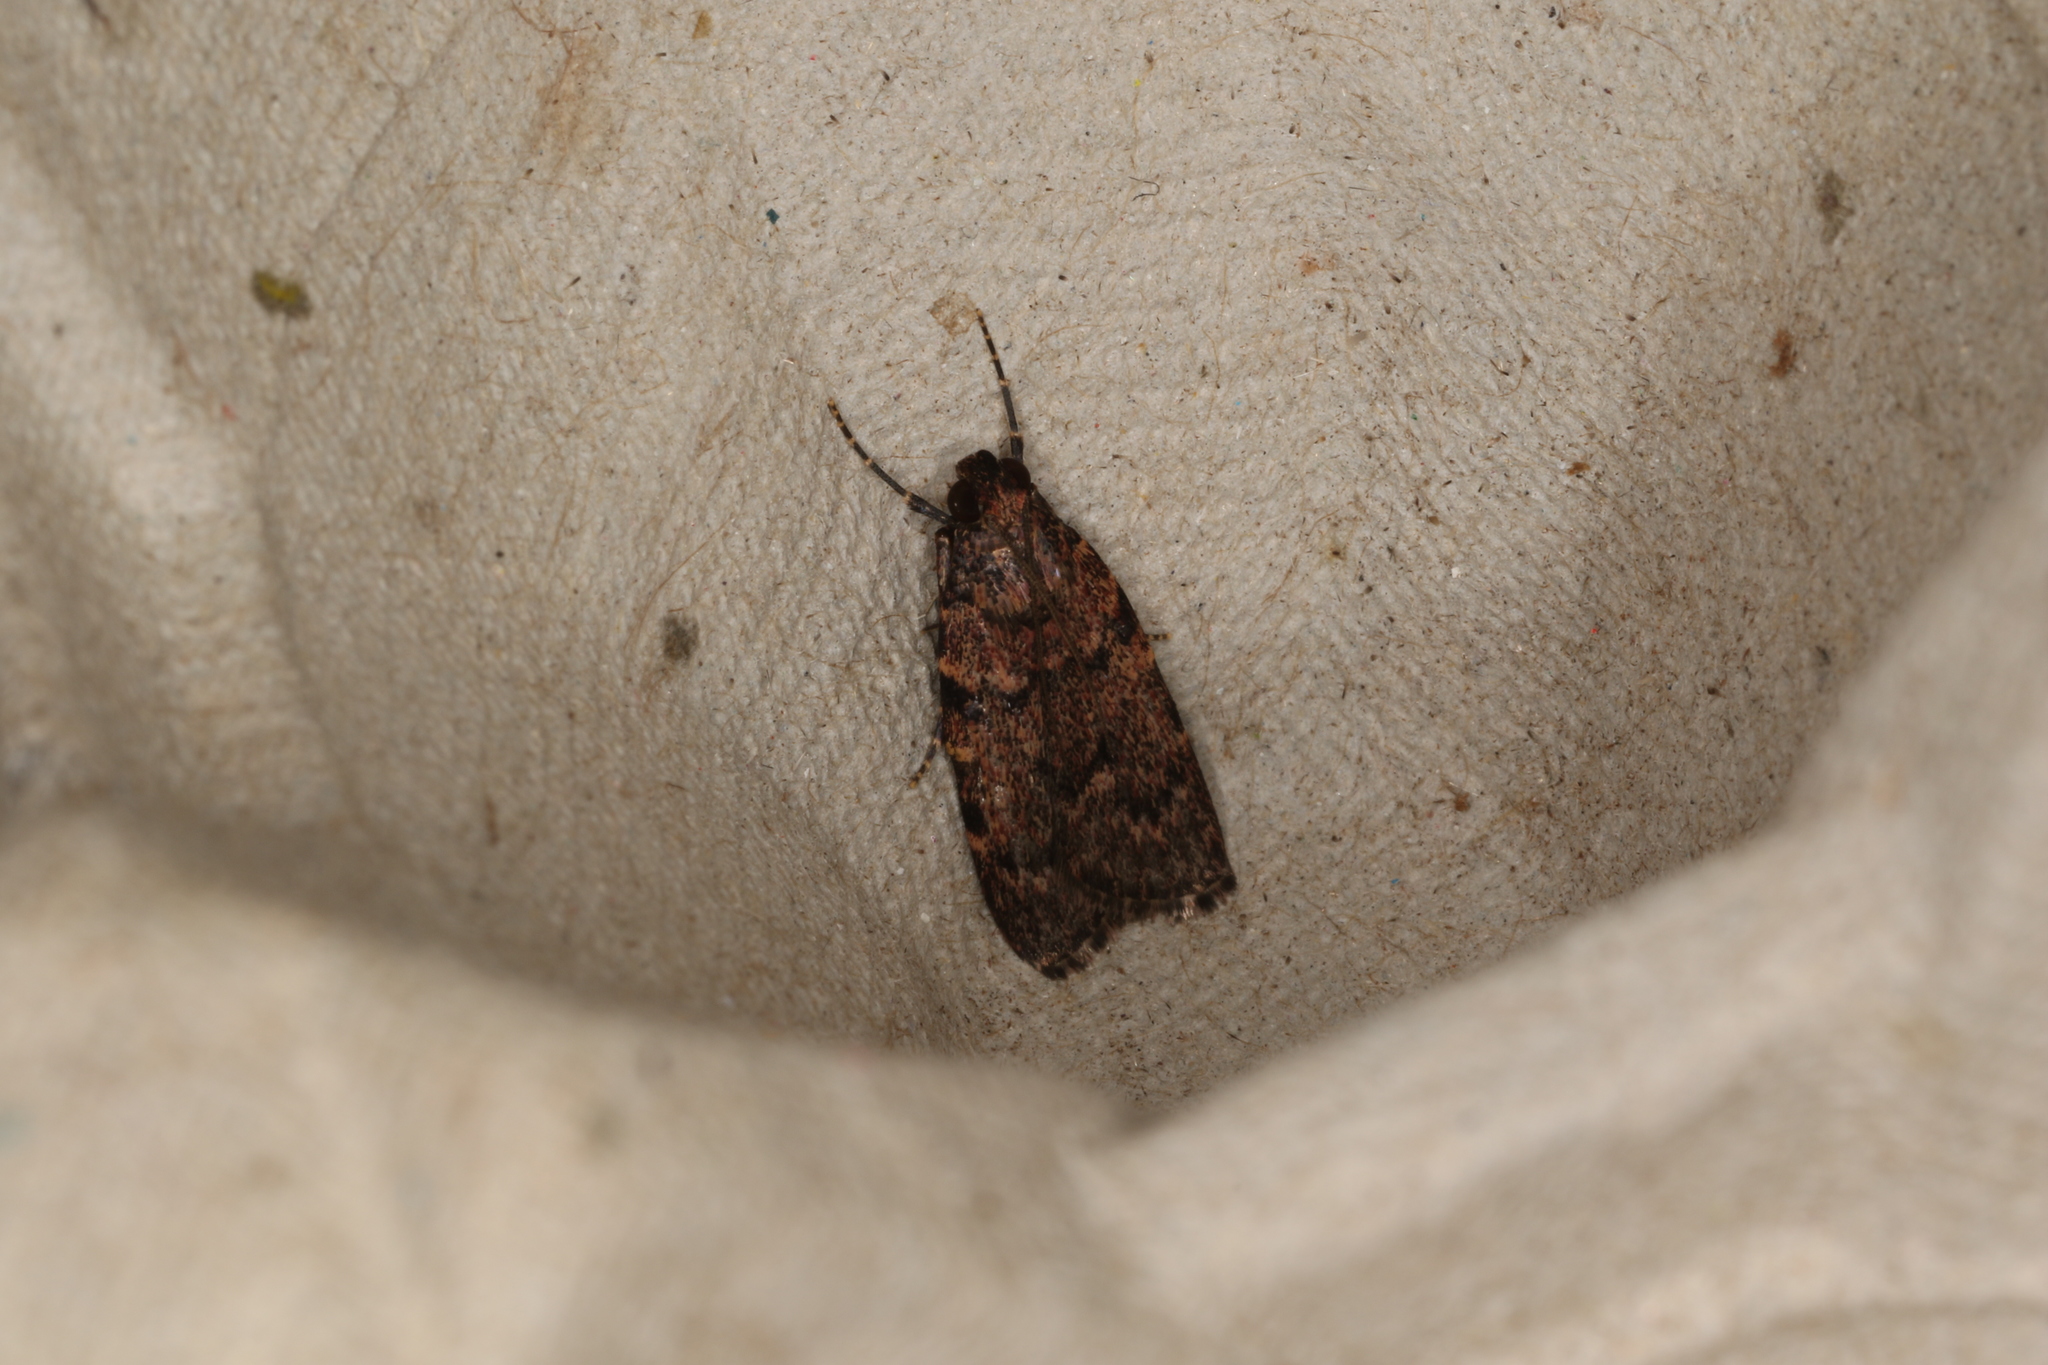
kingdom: Animalia
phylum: Arthropoda
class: Insecta
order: Lepidoptera
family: Pyralidae
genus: Mimaglossa
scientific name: Mimaglossa nauplialis
